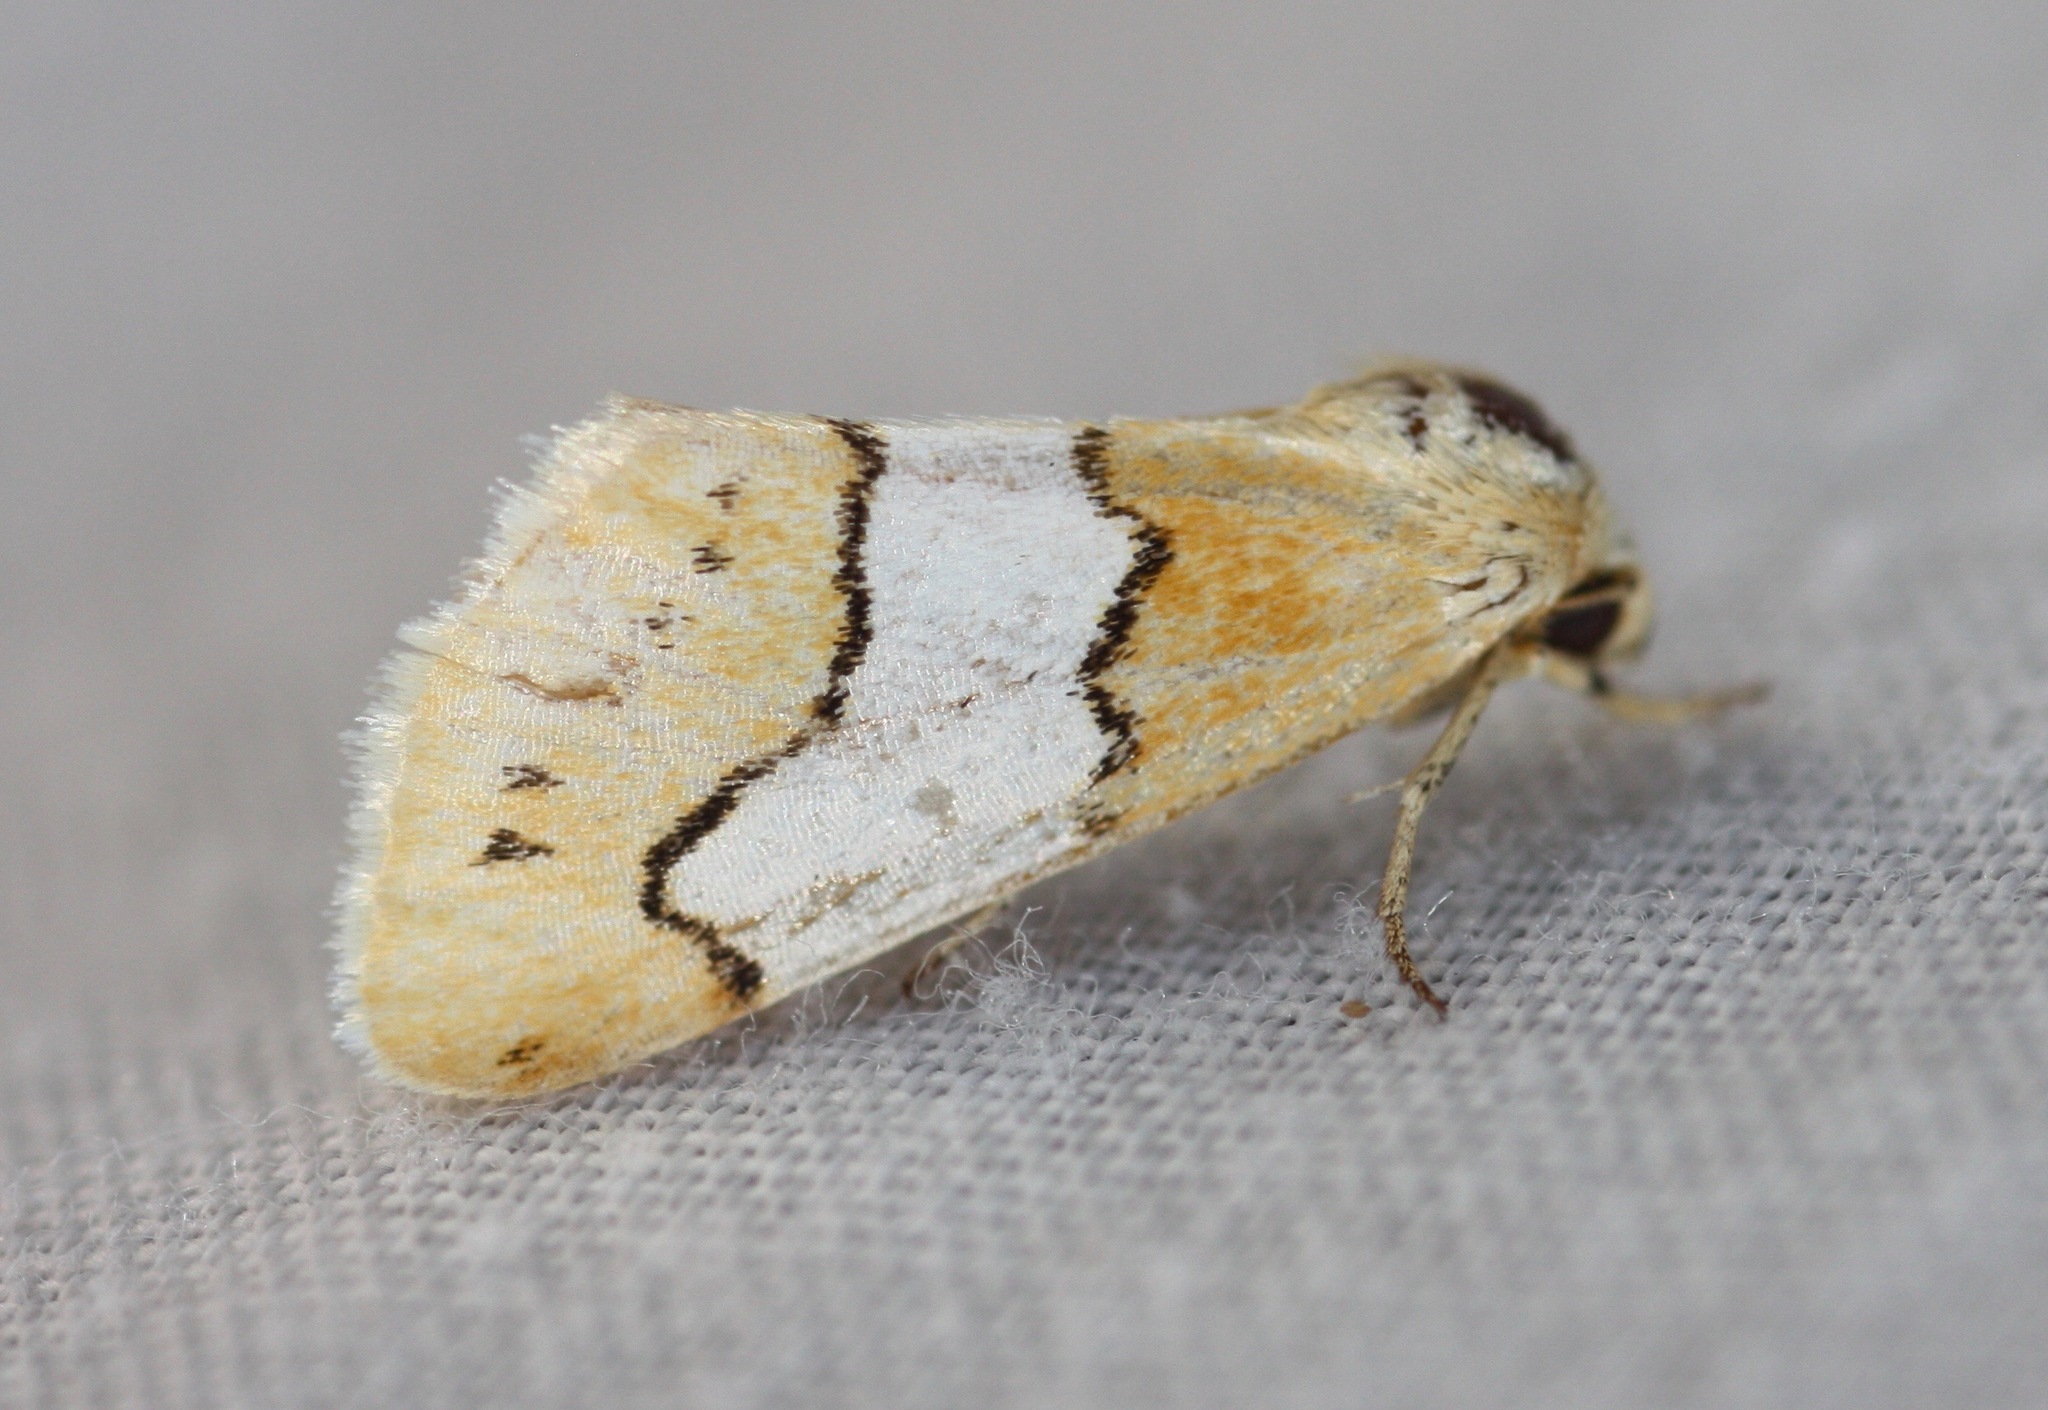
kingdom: Animalia
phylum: Arthropoda
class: Insecta
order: Lepidoptera
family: Noctuidae
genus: Lineostriastiria
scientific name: Lineostriastiria hachita
